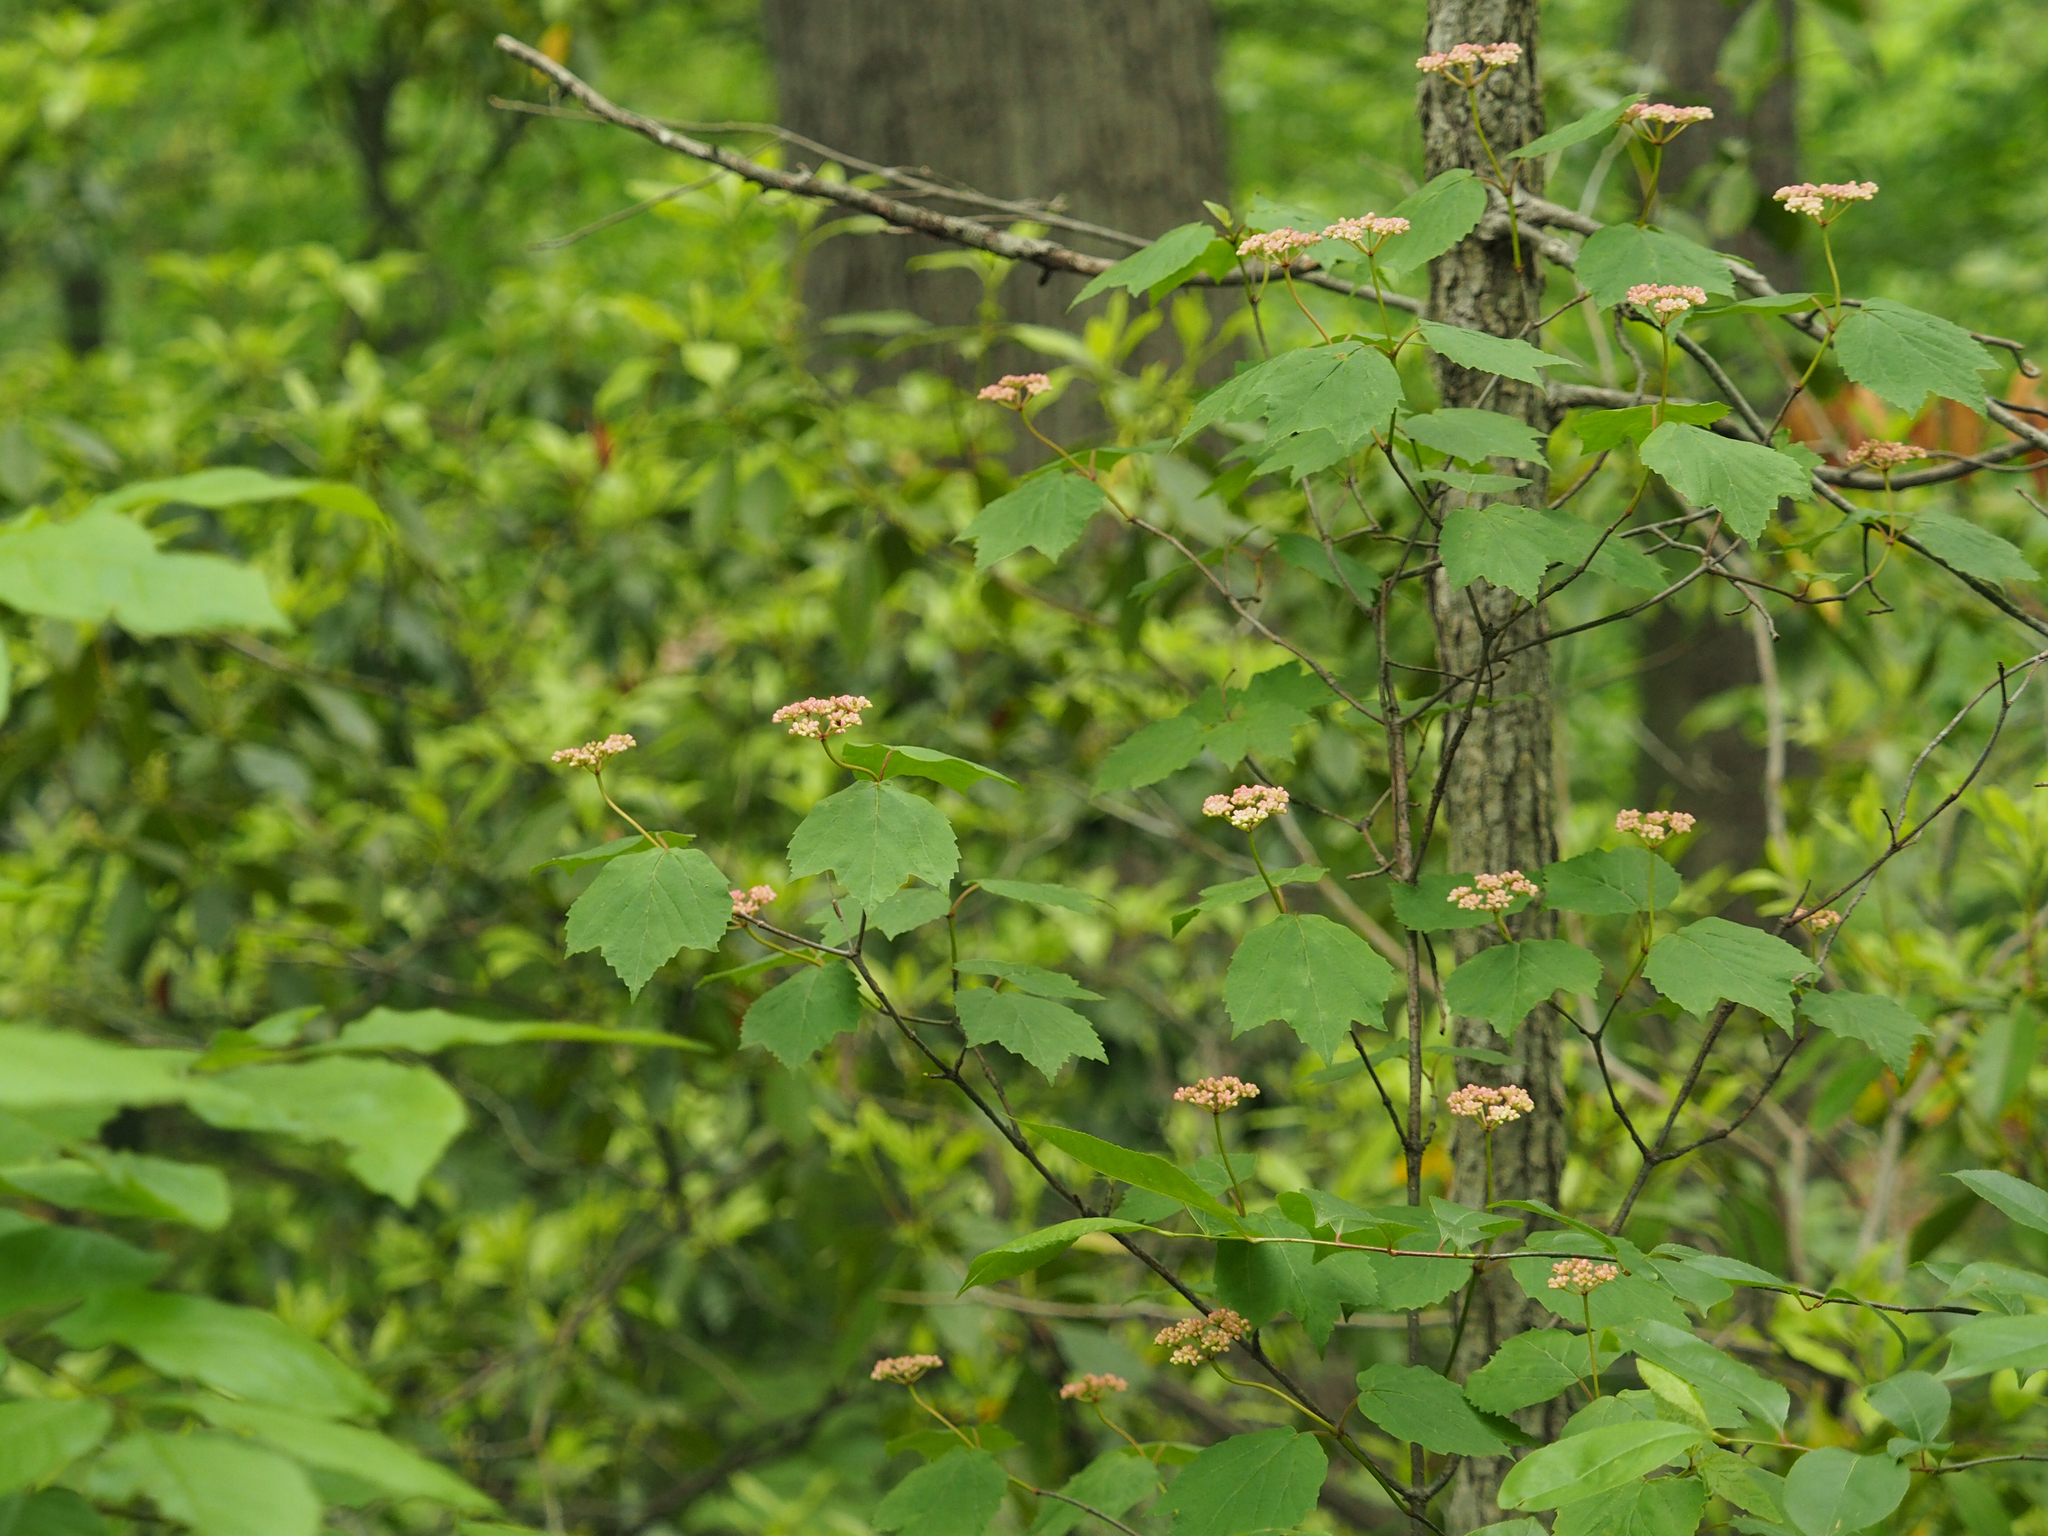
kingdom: Plantae
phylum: Tracheophyta
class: Magnoliopsida
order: Dipsacales
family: Viburnaceae
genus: Viburnum
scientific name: Viburnum acerifolium
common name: Dockmackie
